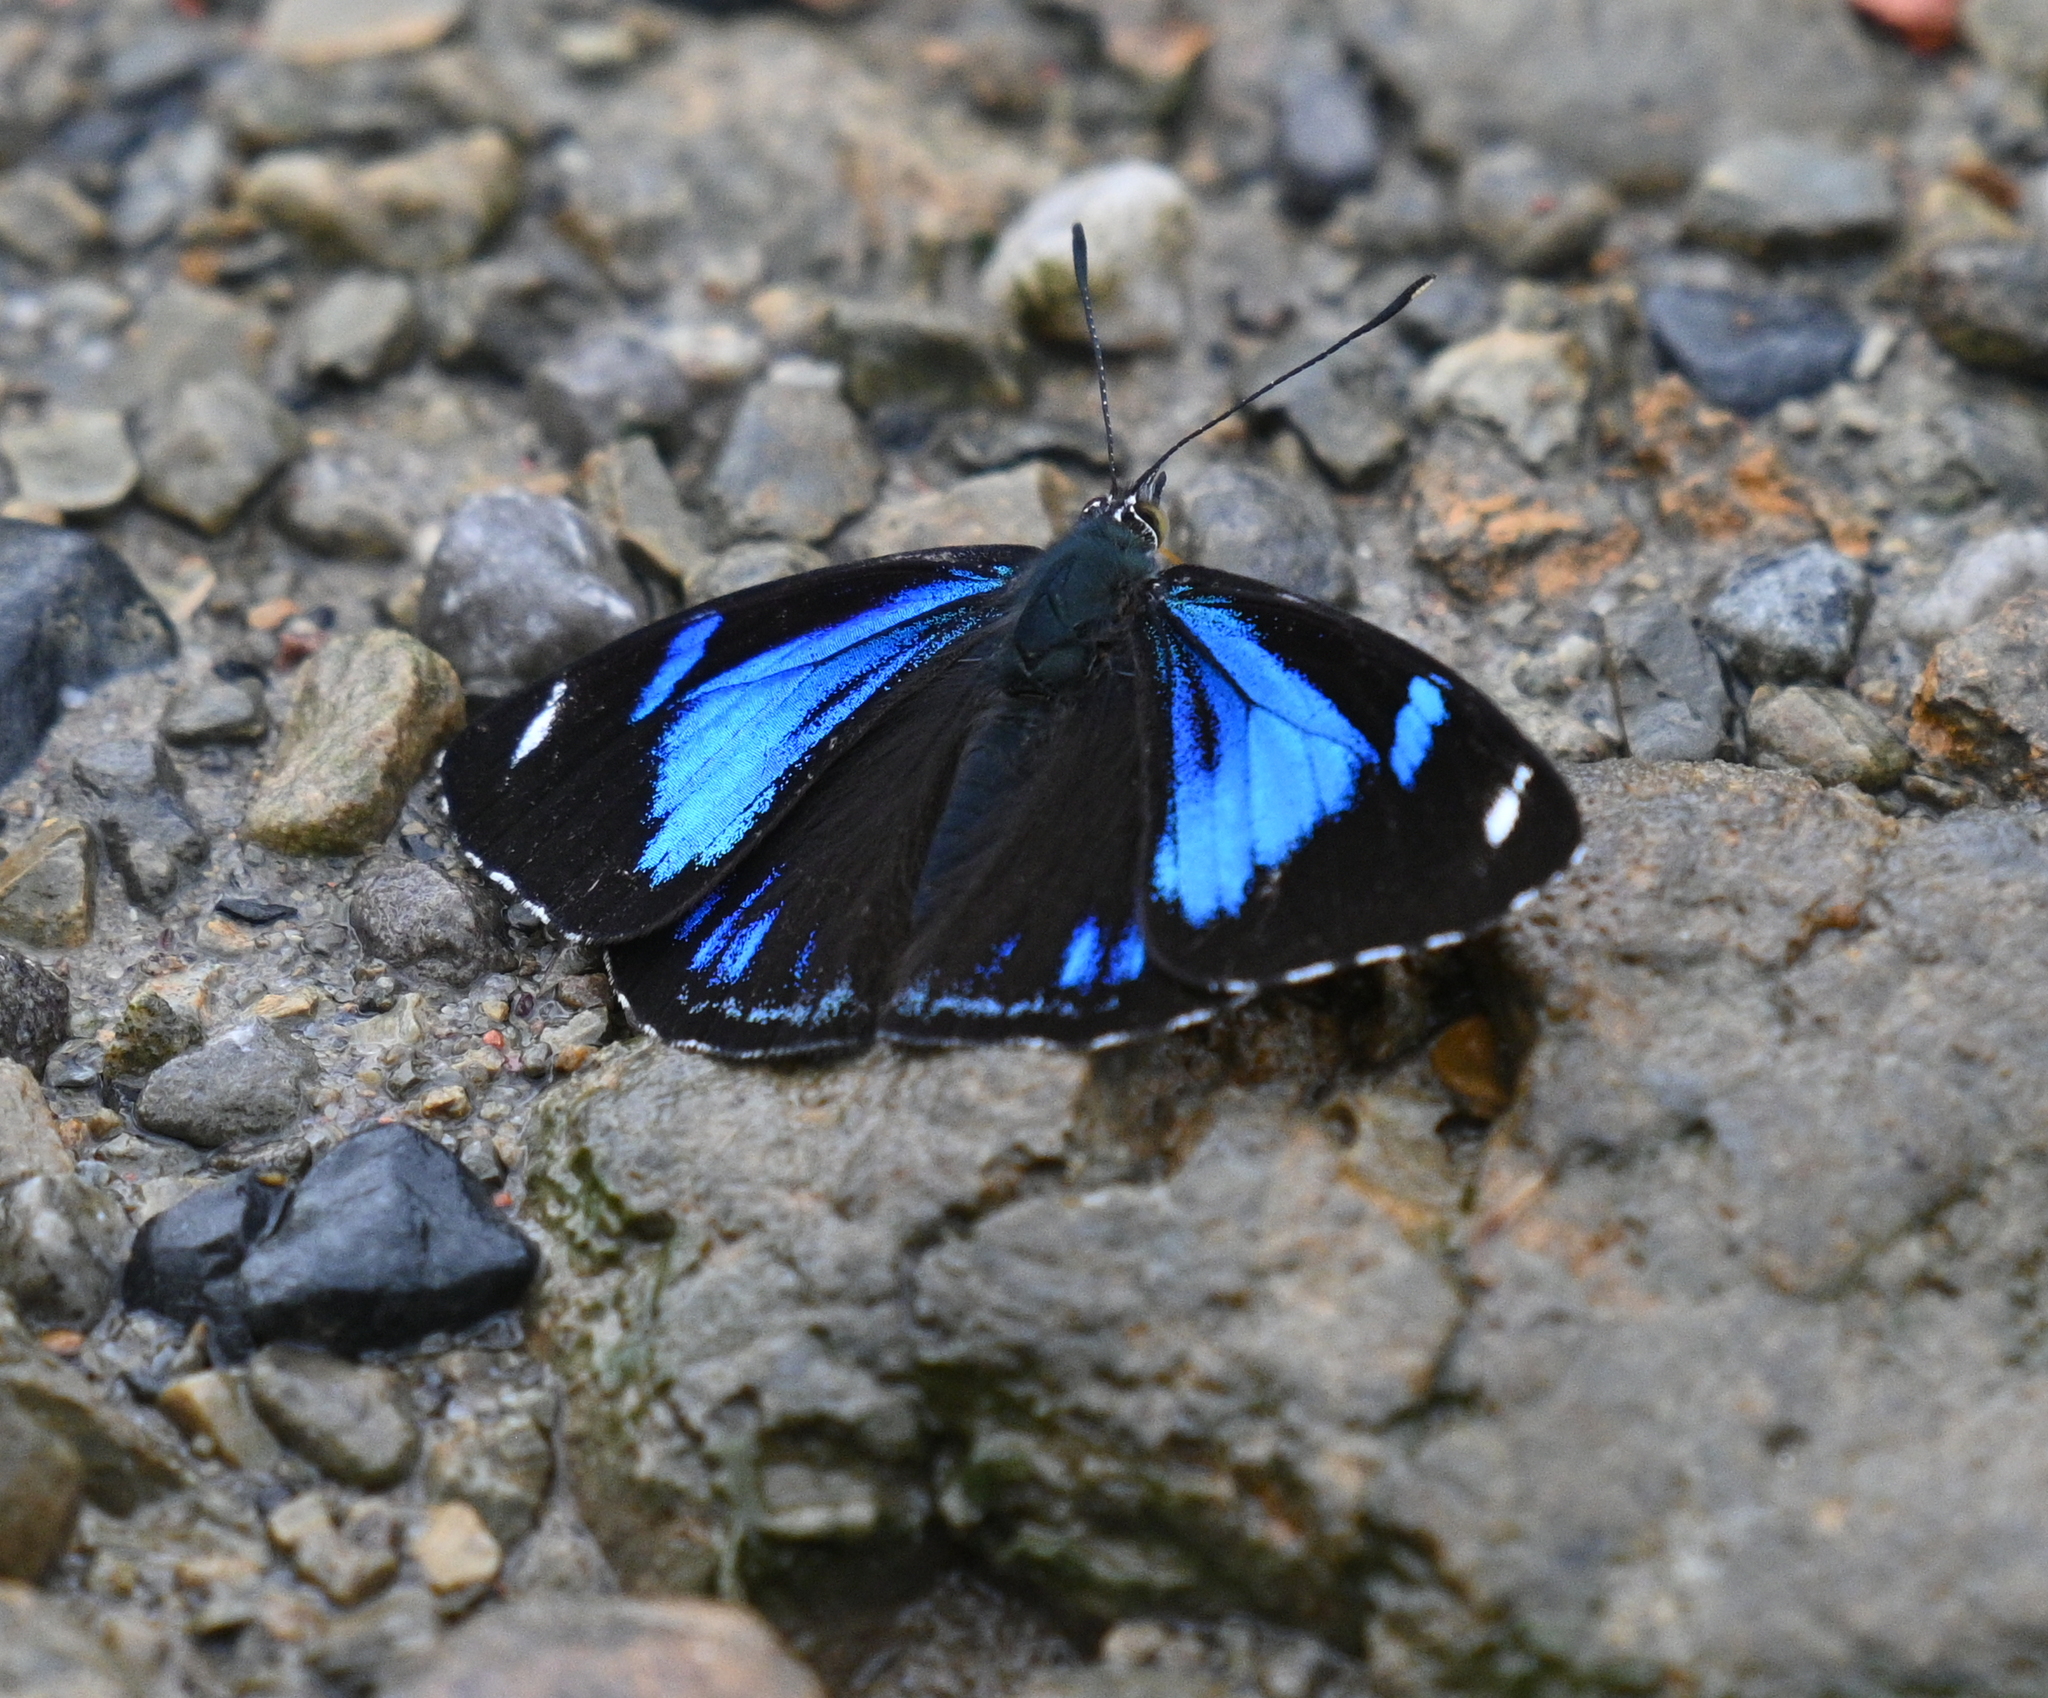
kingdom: Animalia
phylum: Arthropoda
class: Insecta
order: Lepidoptera
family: Nymphalidae
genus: Perisama
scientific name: Perisama philinus
